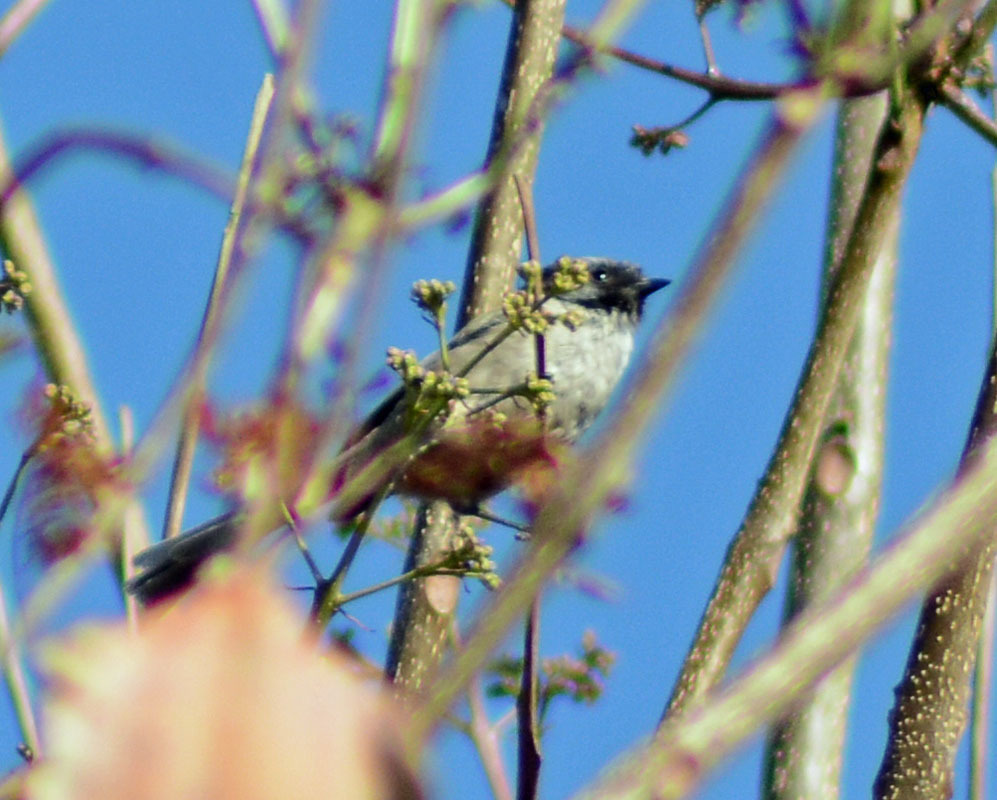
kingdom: Animalia
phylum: Chordata
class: Aves
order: Passeriformes
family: Aegithalidae
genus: Psaltriparus
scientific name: Psaltriparus minimus
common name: American bushtit
